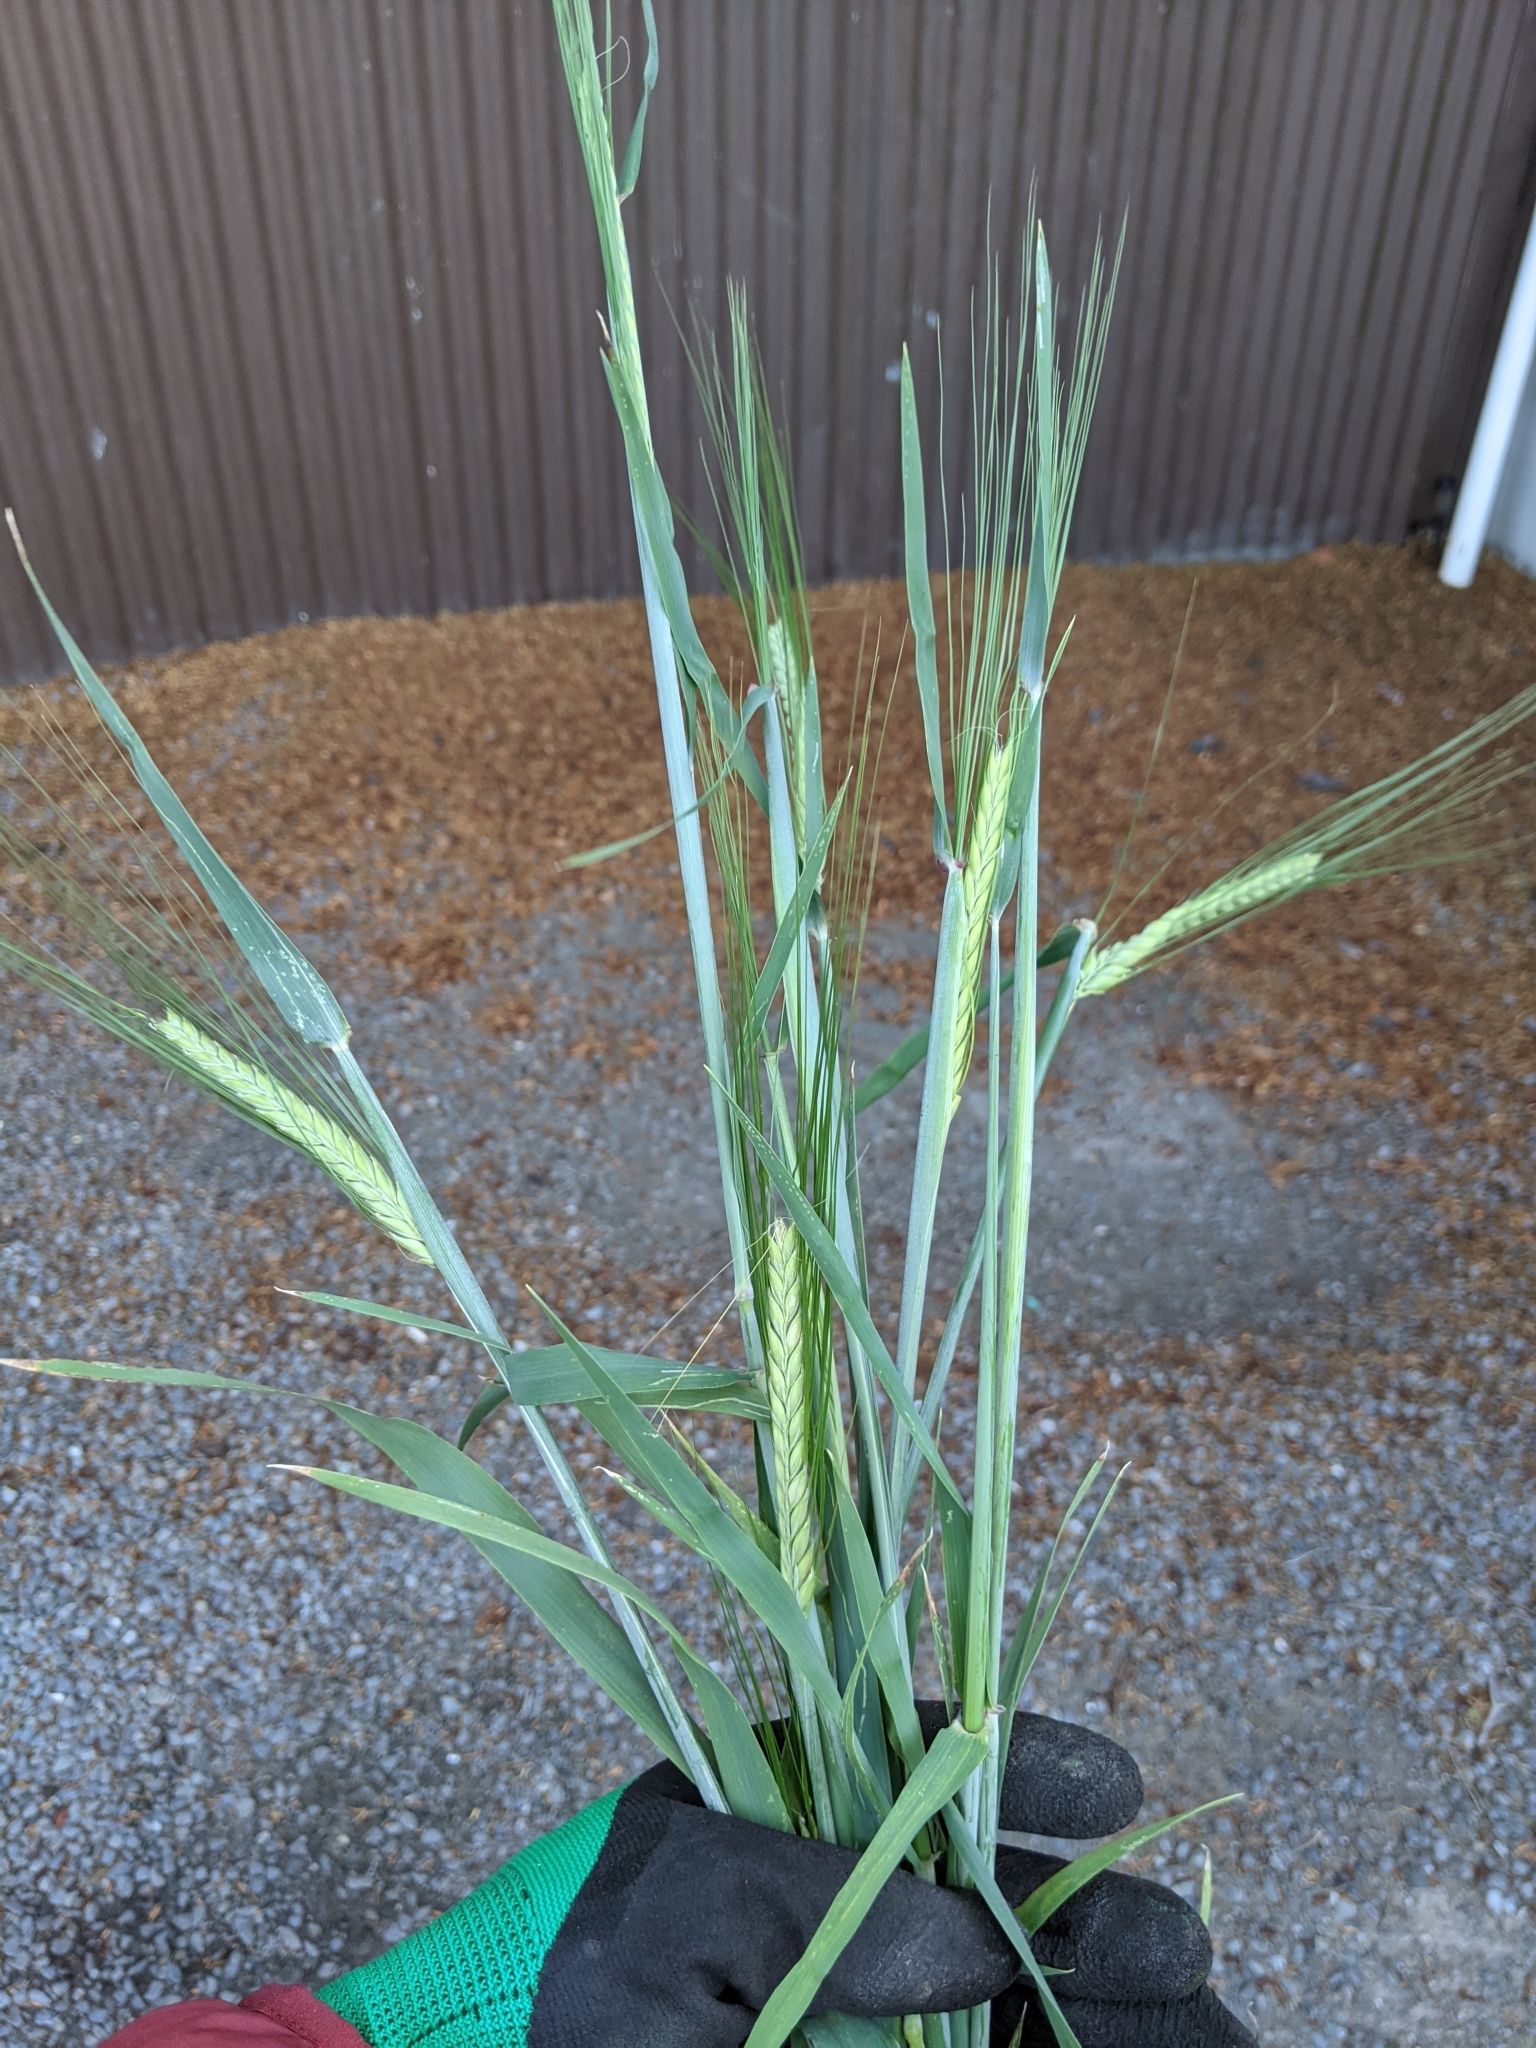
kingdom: Plantae
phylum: Tracheophyta
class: Liliopsida
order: Poales
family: Poaceae
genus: Hordeum
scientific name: Hordeum vulgare
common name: Common barley
